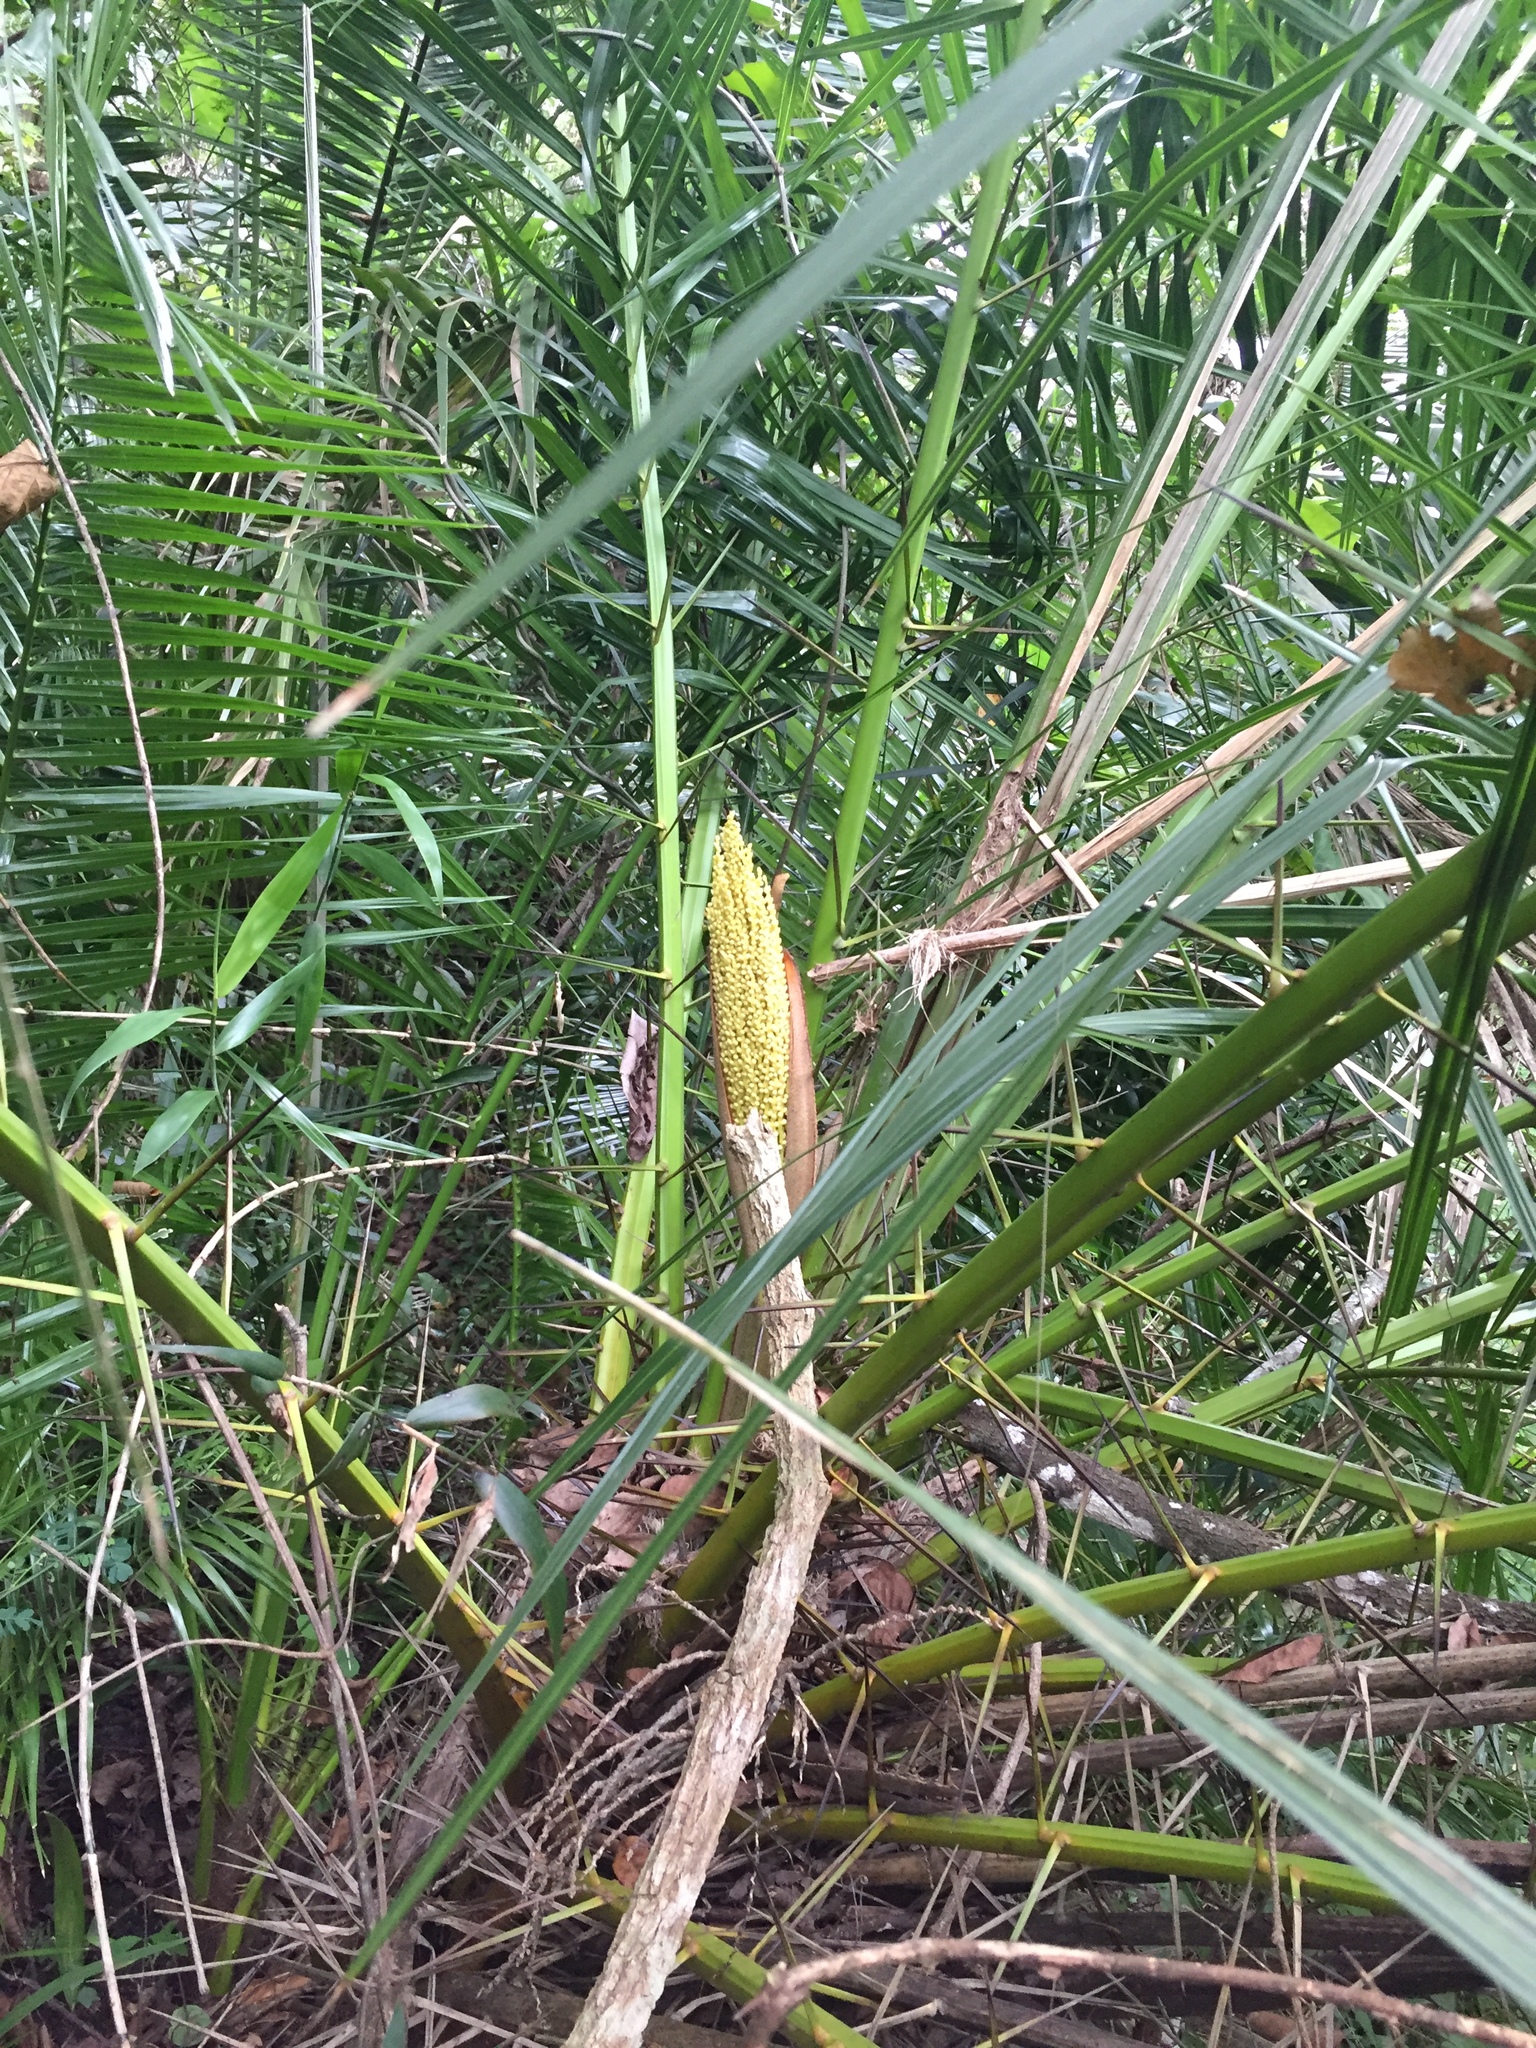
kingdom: Plantae
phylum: Tracheophyta
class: Liliopsida
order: Arecales
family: Arecaceae
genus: Phoenix
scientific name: Phoenix reclinata
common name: Senegal date palm
